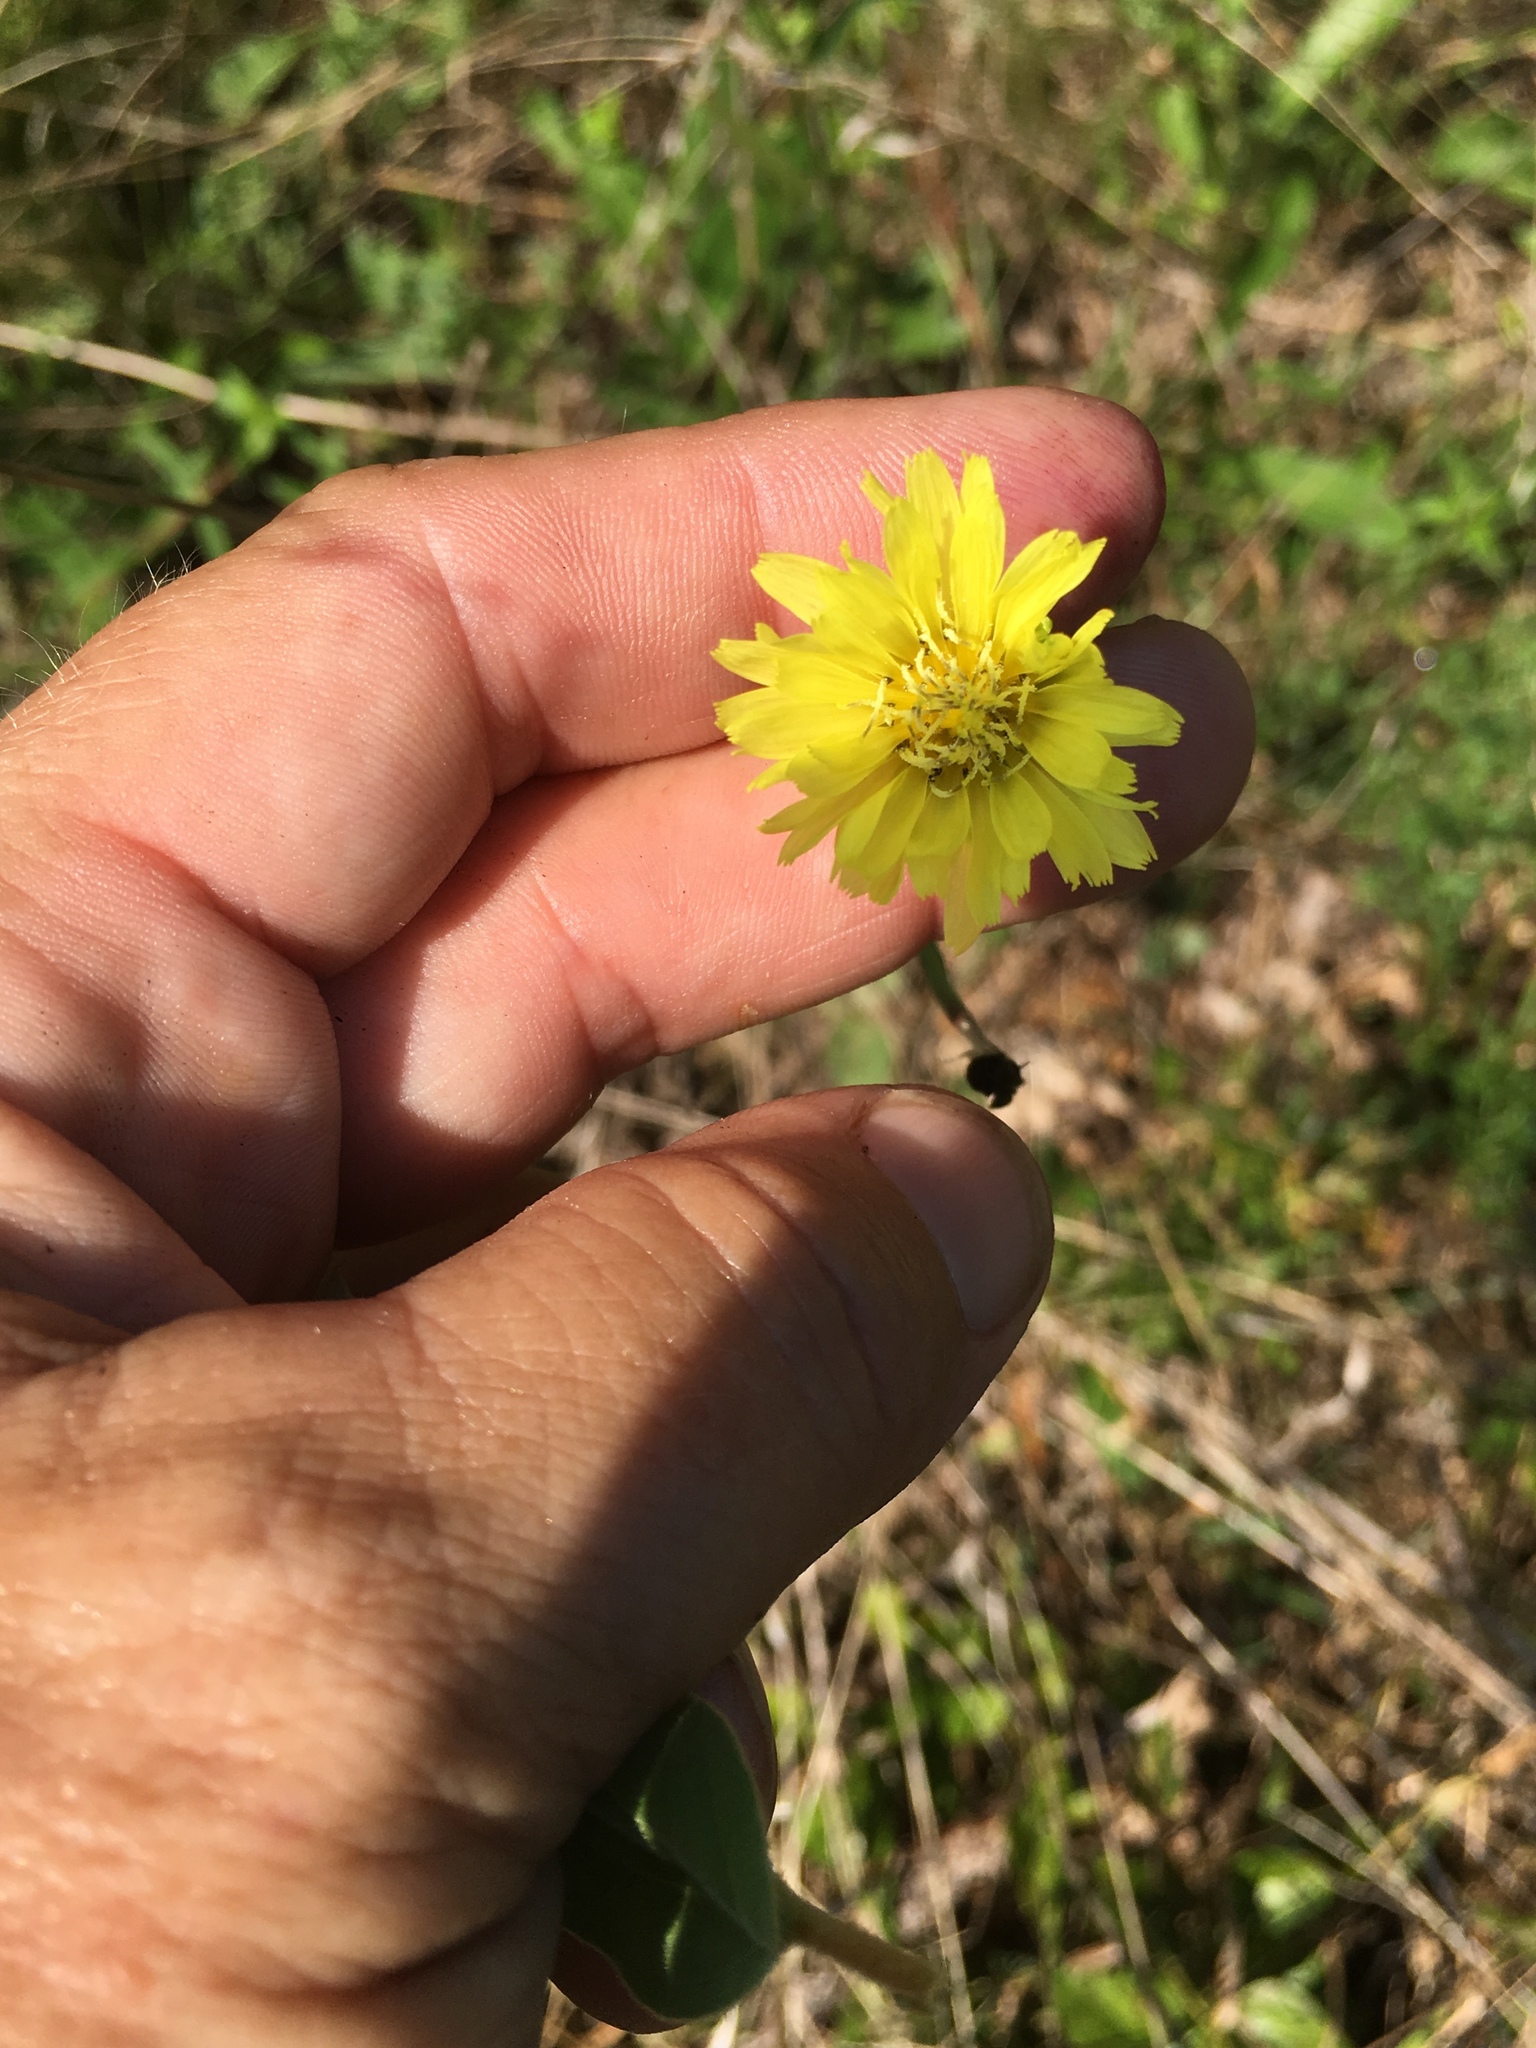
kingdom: Plantae
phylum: Tracheophyta
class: Magnoliopsida
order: Asterales
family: Asteraceae
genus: Pyrrhopappus
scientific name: Pyrrhopappus carolinianus
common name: Carolina desert-chicory
